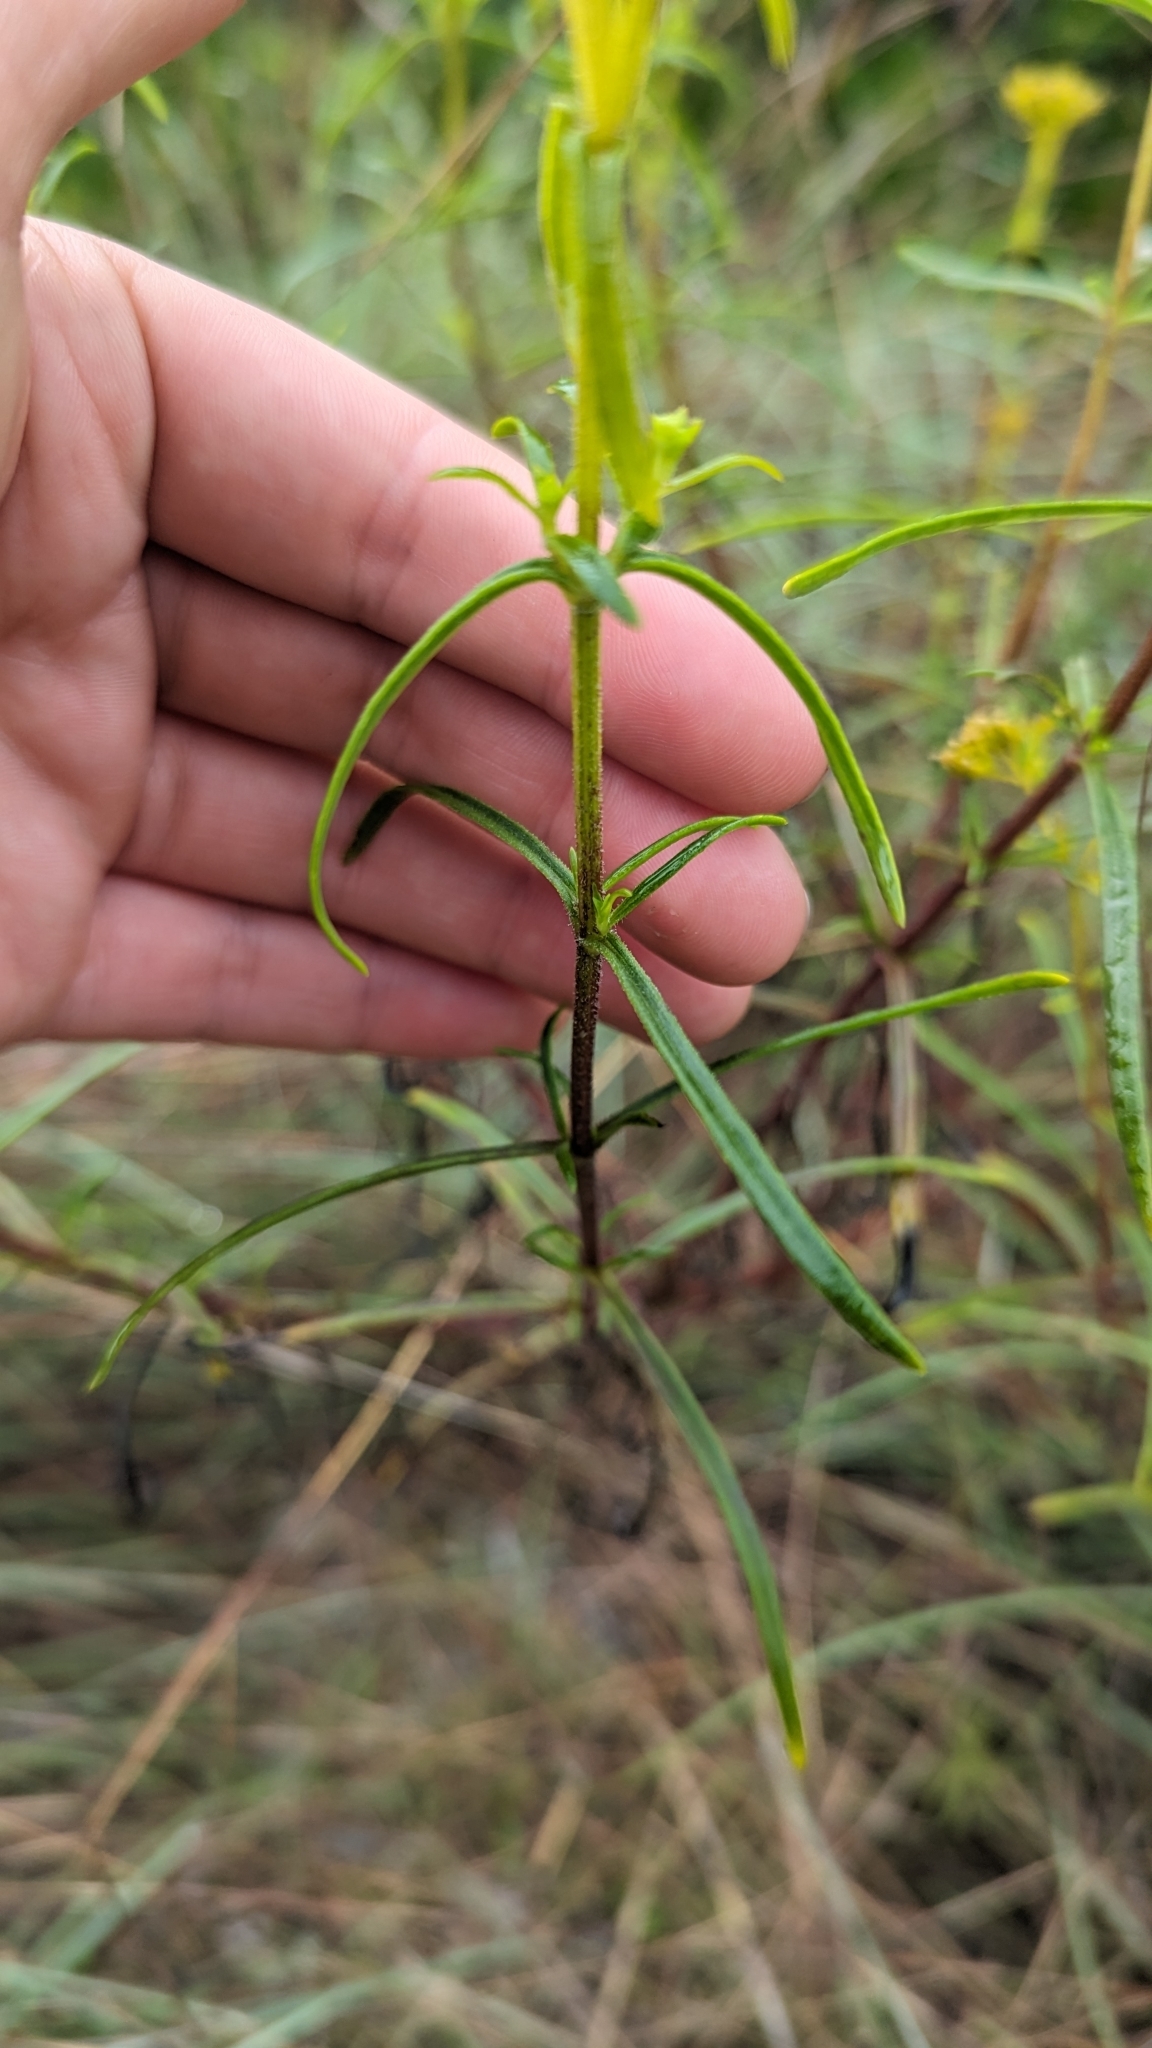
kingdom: Plantae
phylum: Tracheophyta
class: Magnoliopsida
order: Asterales
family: Asteraceae
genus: Flaveria
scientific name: Flaveria linearis
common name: Yellowtop
